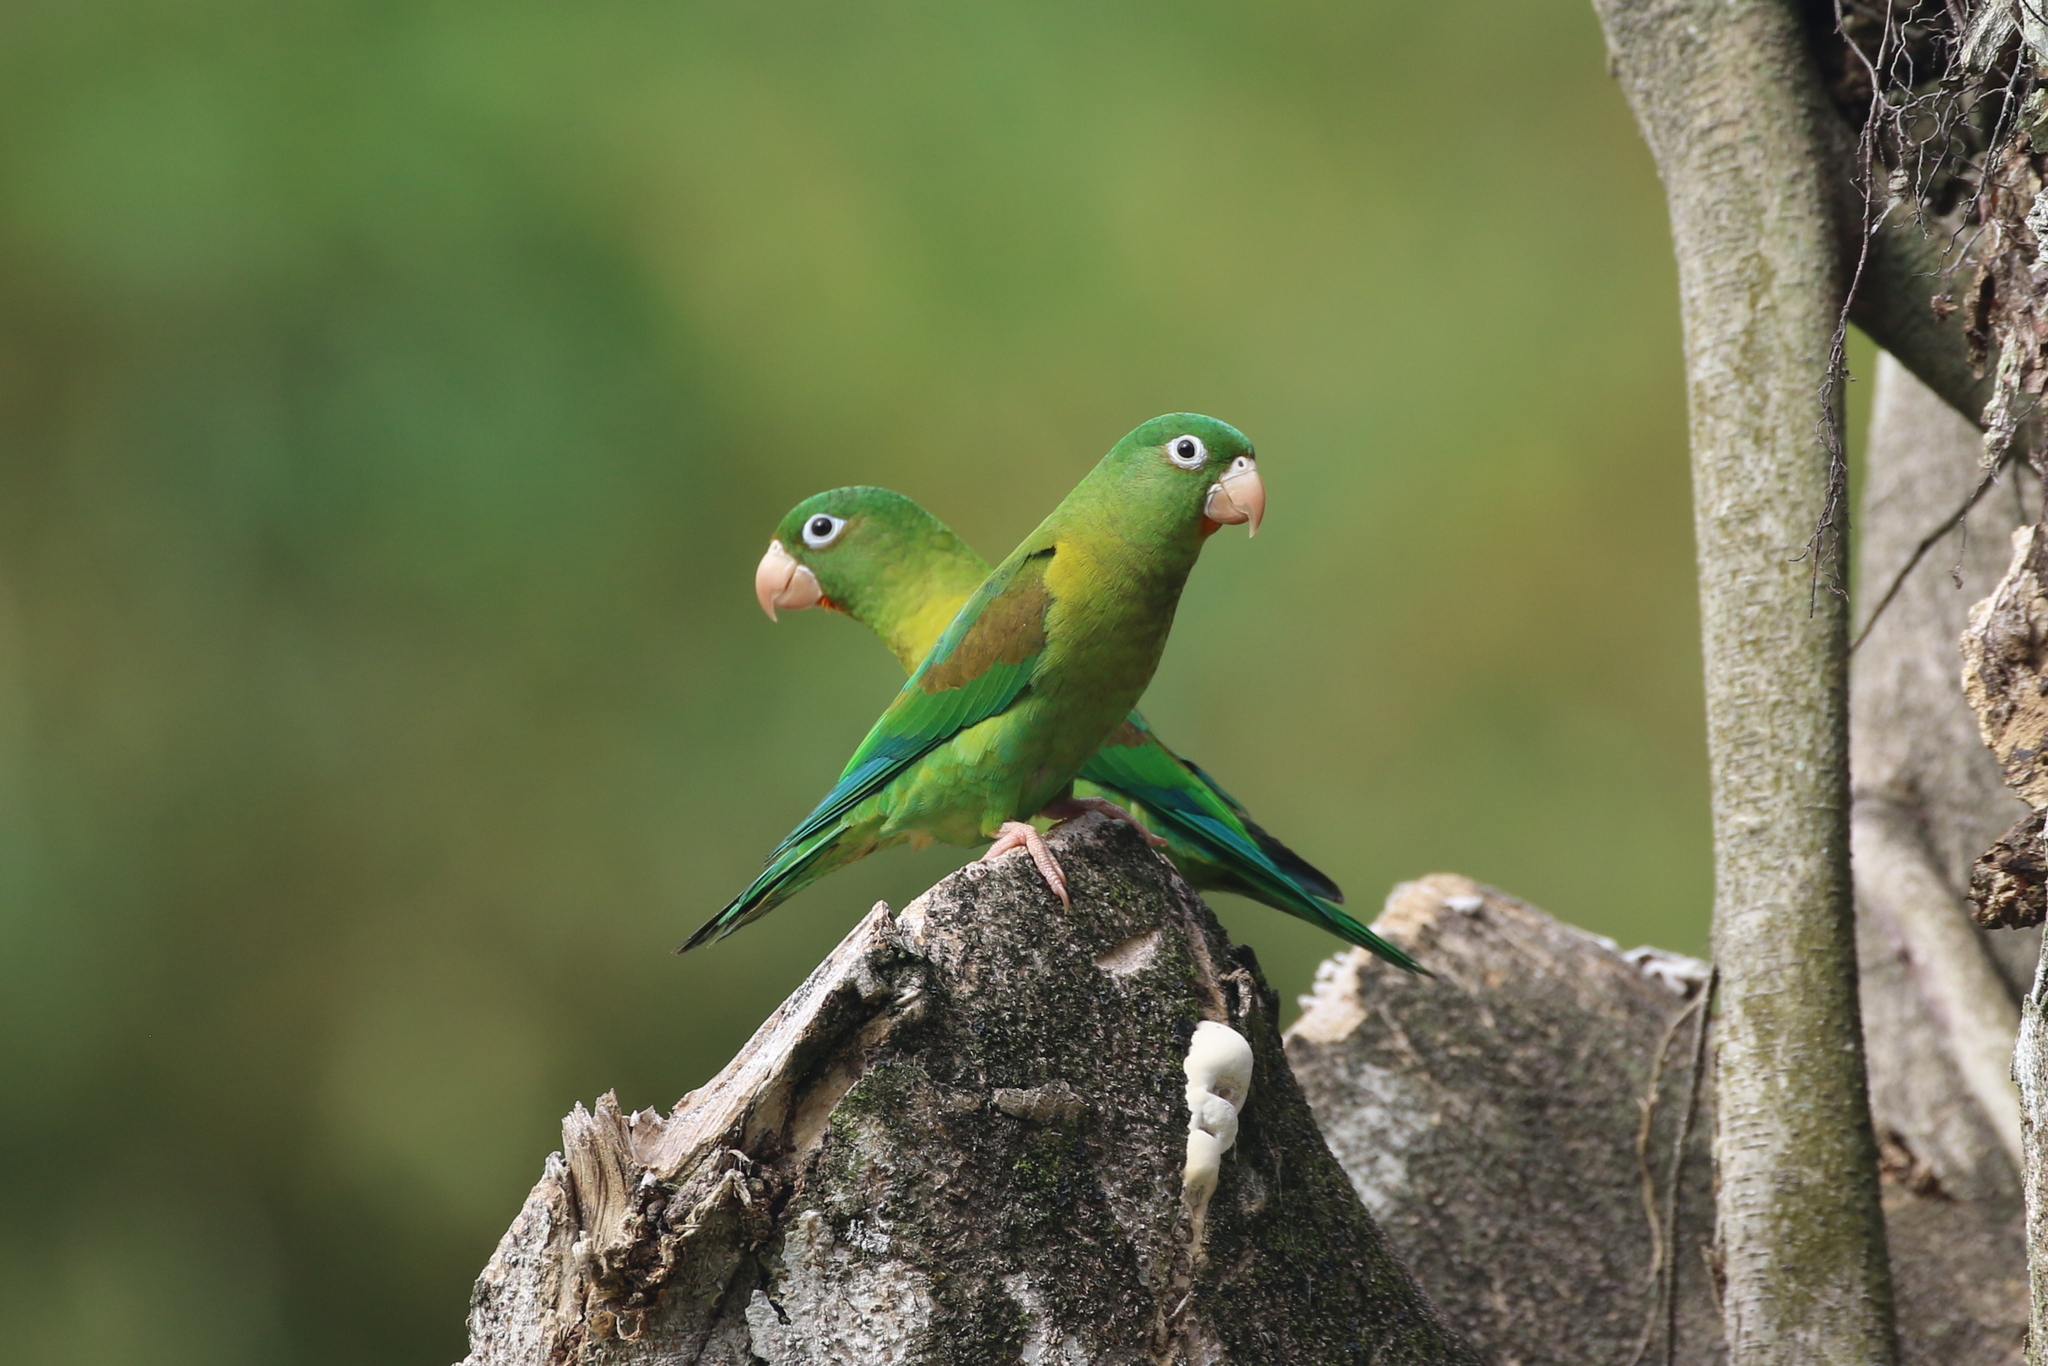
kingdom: Animalia
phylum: Chordata
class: Aves
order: Psittaciformes
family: Psittacidae
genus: Brotogeris
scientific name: Brotogeris jugularis
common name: Orange-chinned parakeet
